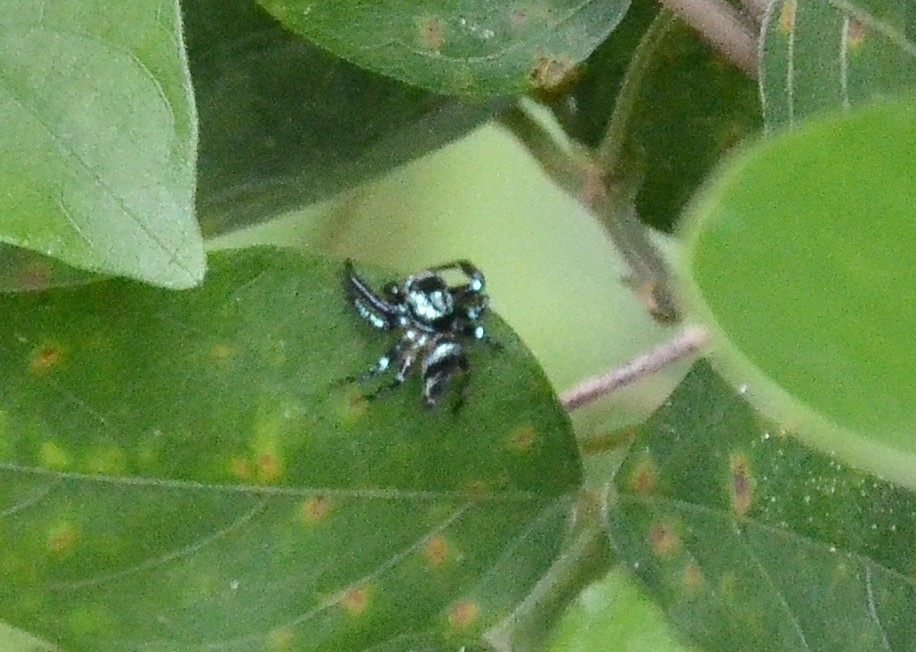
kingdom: Animalia
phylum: Arthropoda
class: Arachnida
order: Araneae
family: Salticidae
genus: Thiania
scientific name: Thiania bhamoensis
